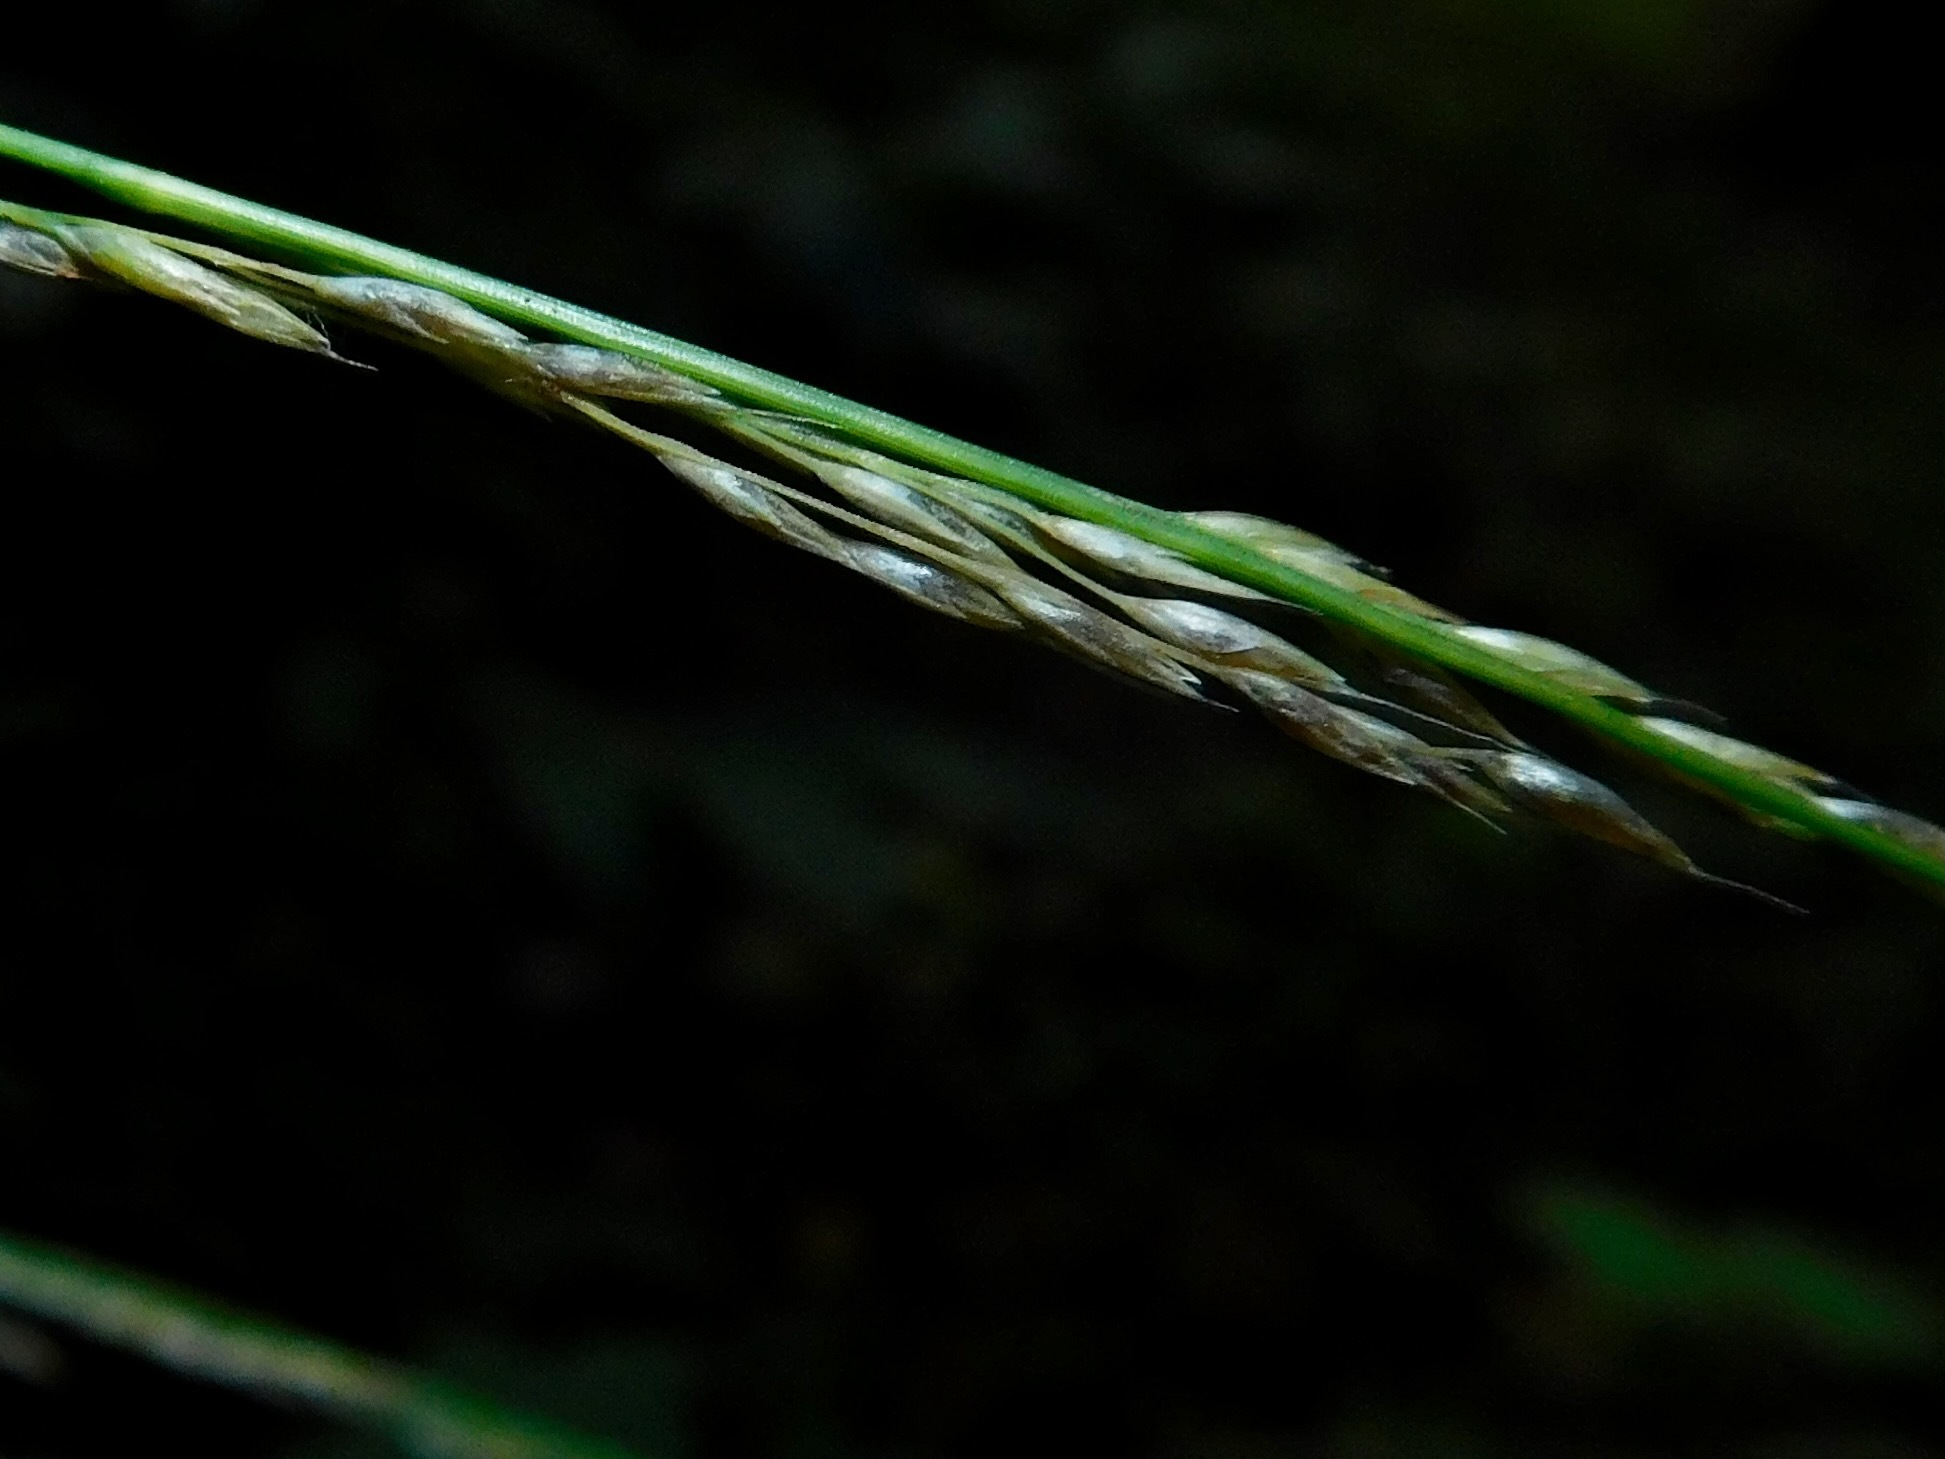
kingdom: Plantae
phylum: Tracheophyta
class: Liliopsida
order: Poales
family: Poaceae
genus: Muhlenbergia
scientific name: Muhlenbergia tenuiflora
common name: Slender muhly
